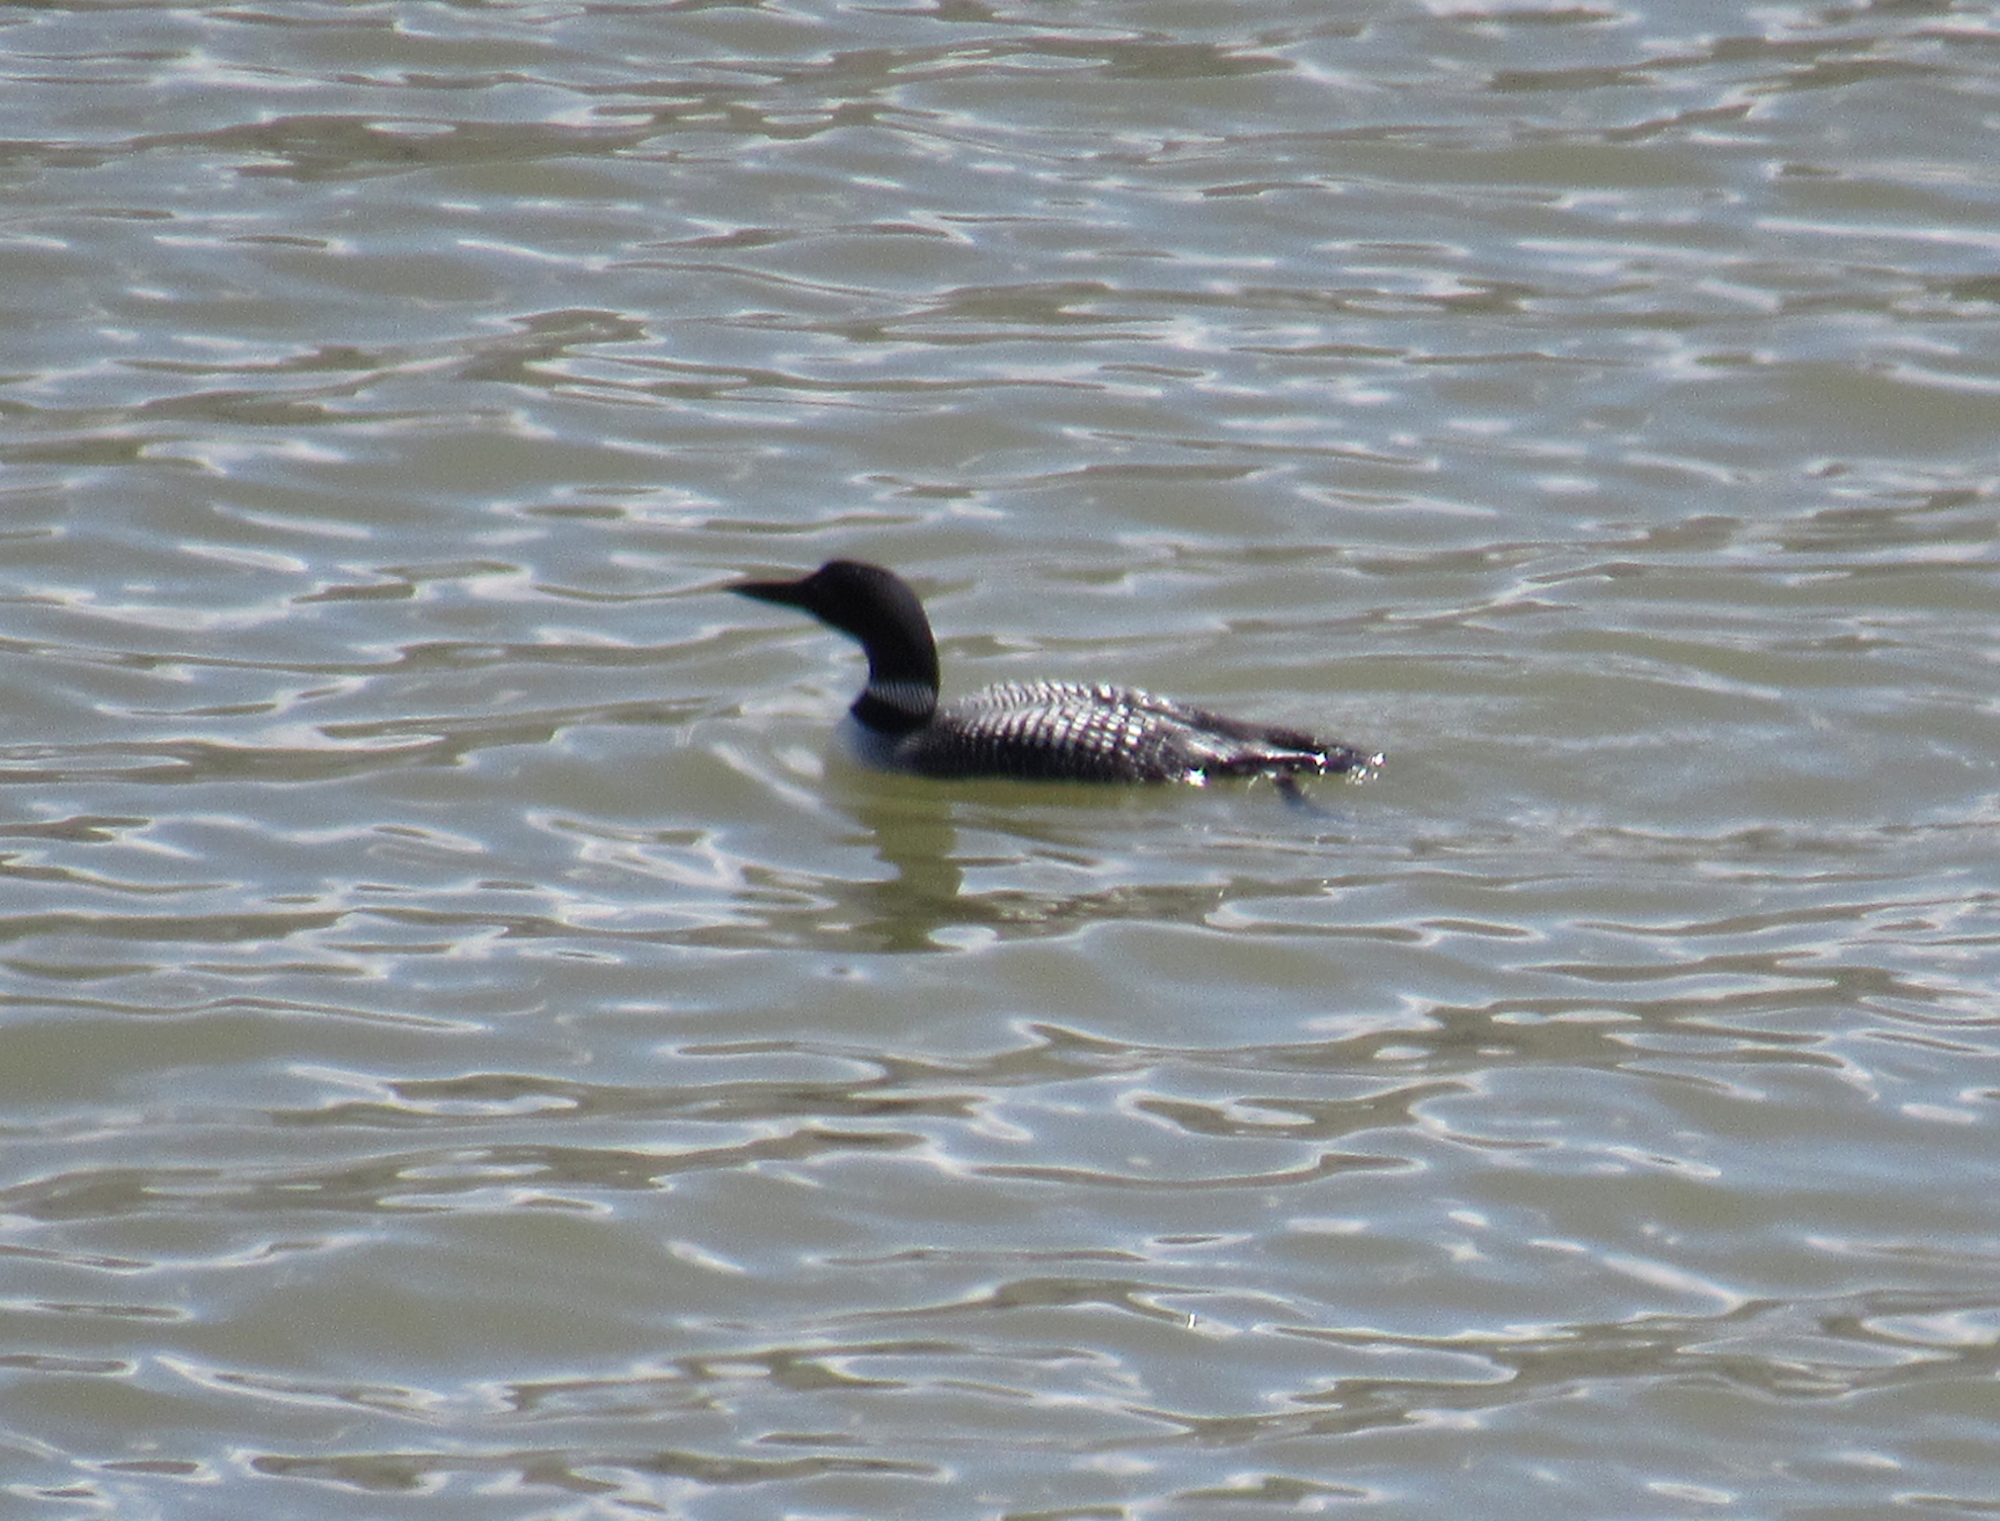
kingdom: Animalia
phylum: Chordata
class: Aves
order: Gaviiformes
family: Gaviidae
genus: Gavia
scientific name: Gavia immer
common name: Common loon
